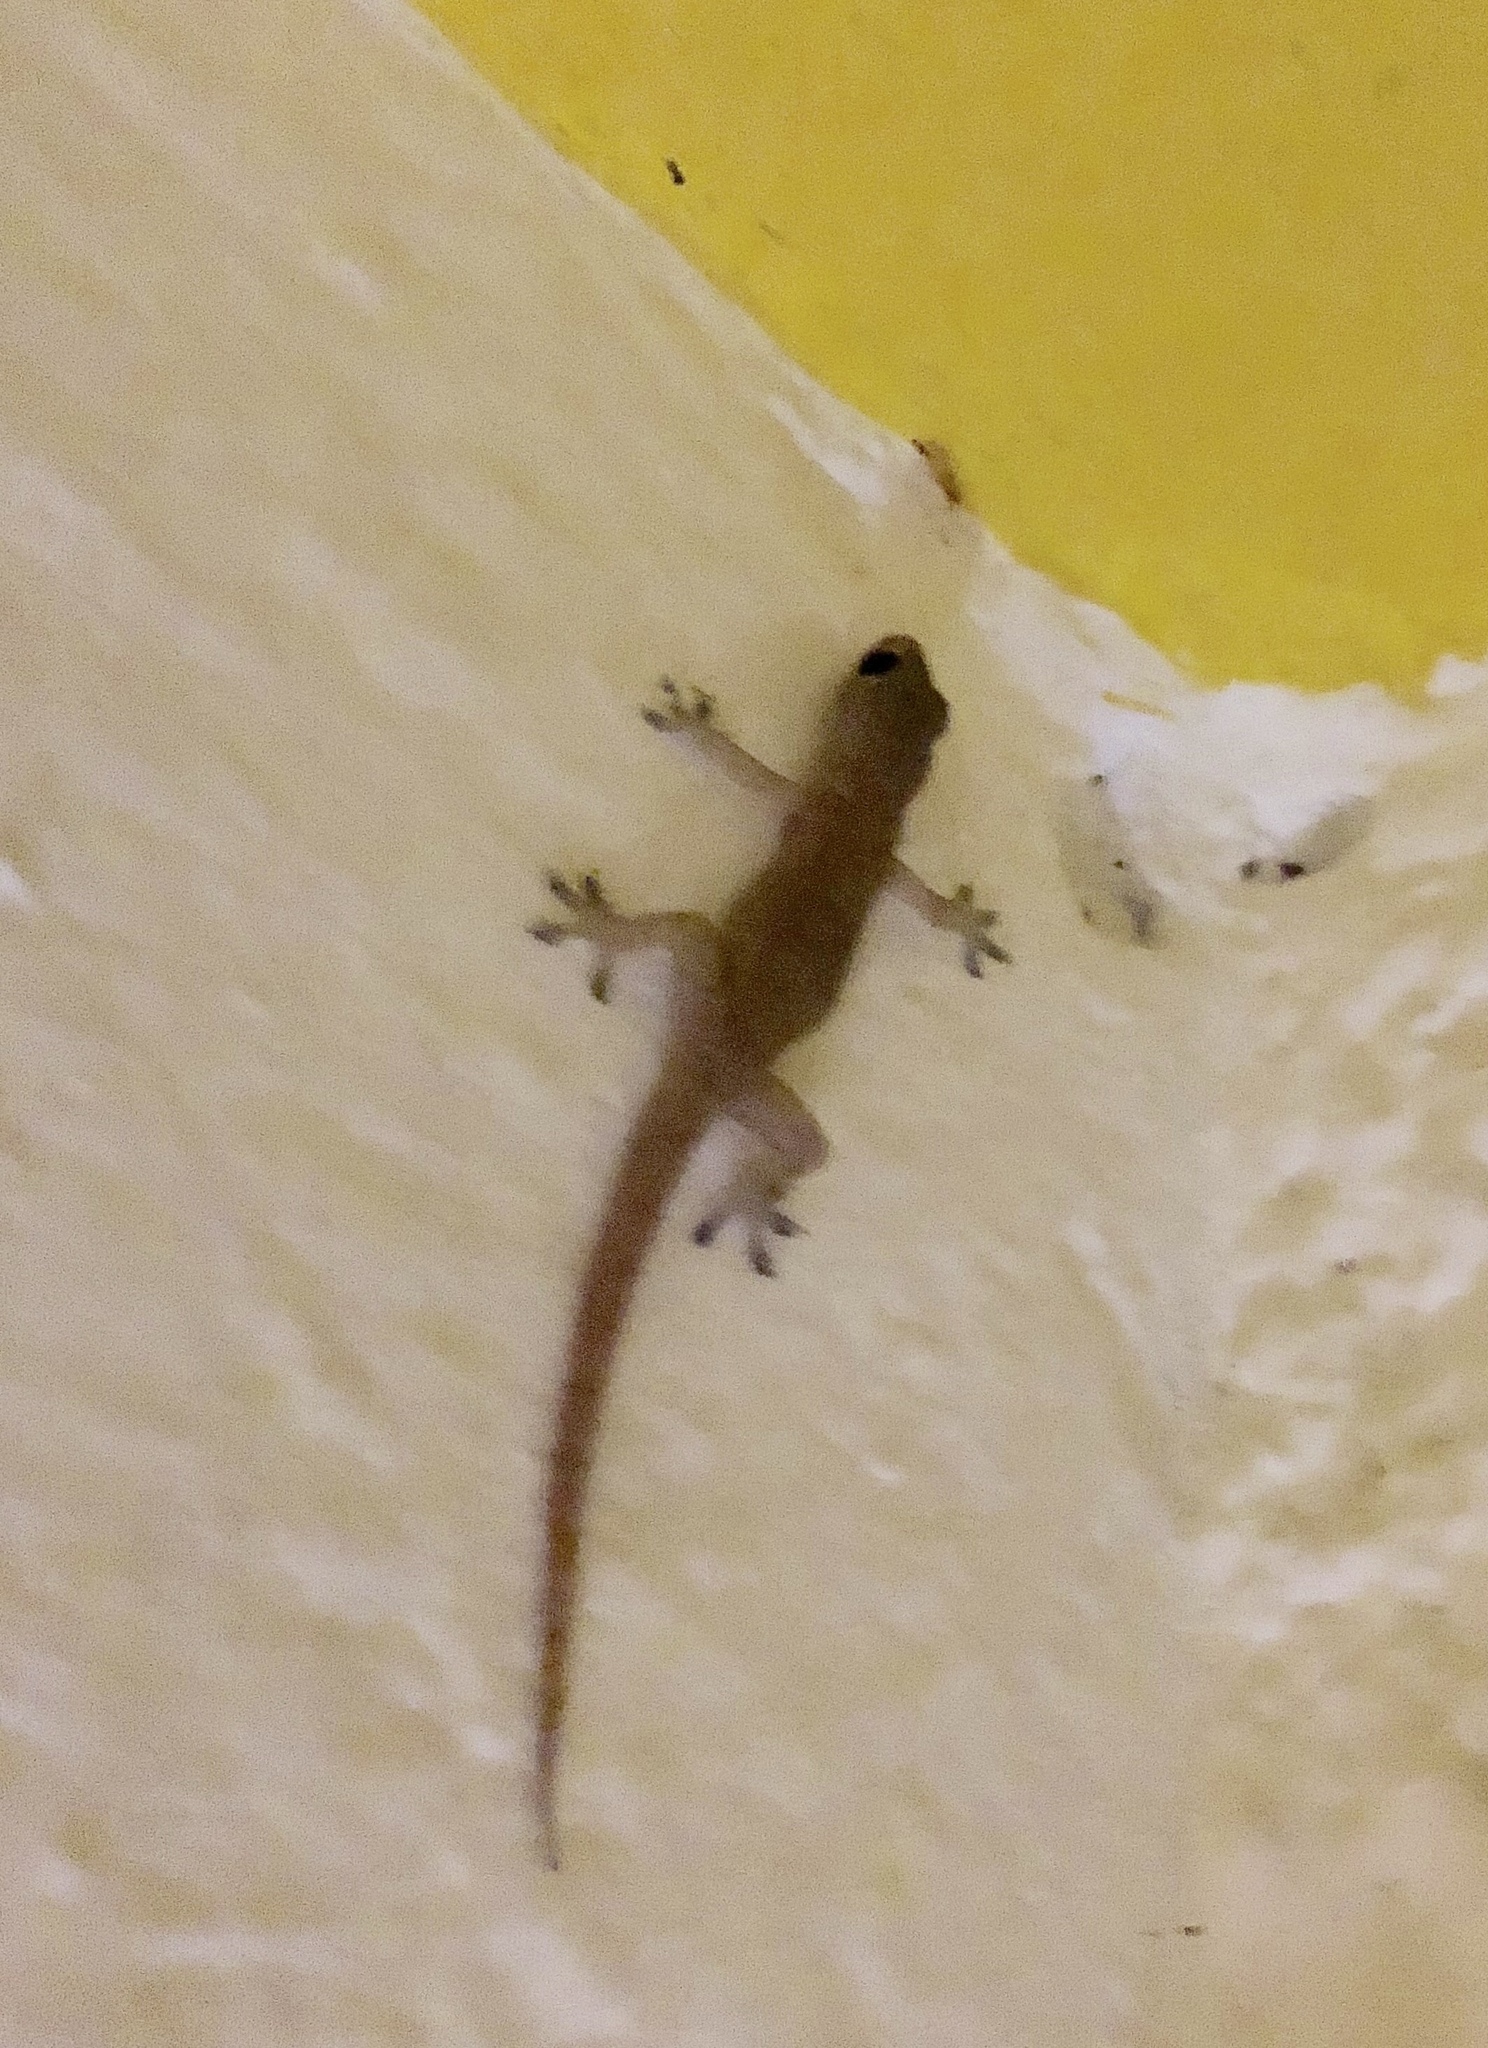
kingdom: Animalia
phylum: Chordata
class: Squamata
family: Gekkonidae
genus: Hemidactylus
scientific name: Hemidactylus frenatus
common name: Common house gecko
